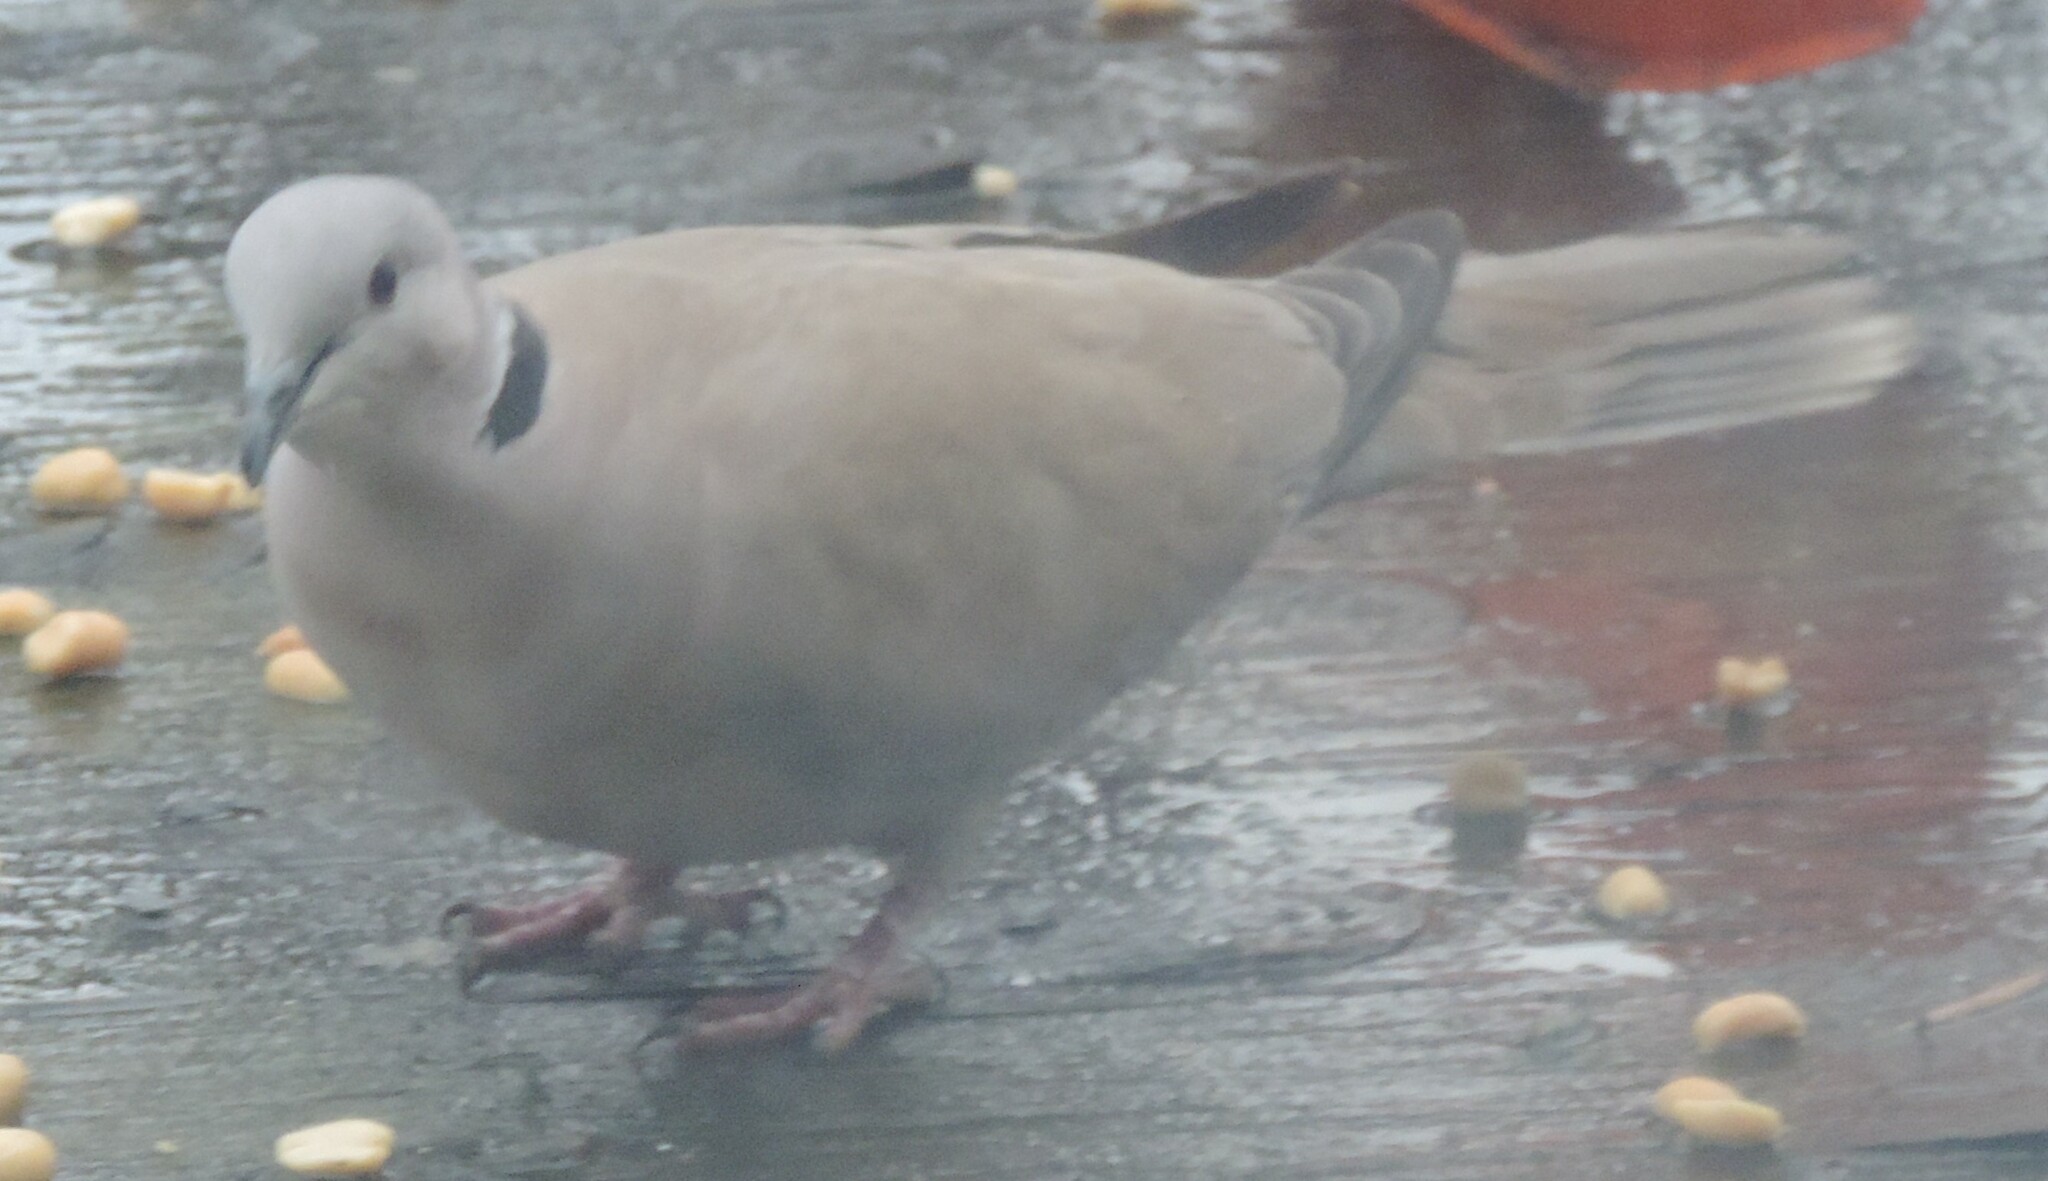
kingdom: Animalia
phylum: Chordata
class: Aves
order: Columbiformes
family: Columbidae
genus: Streptopelia
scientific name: Streptopelia decaocto
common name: Eurasian collared dove
